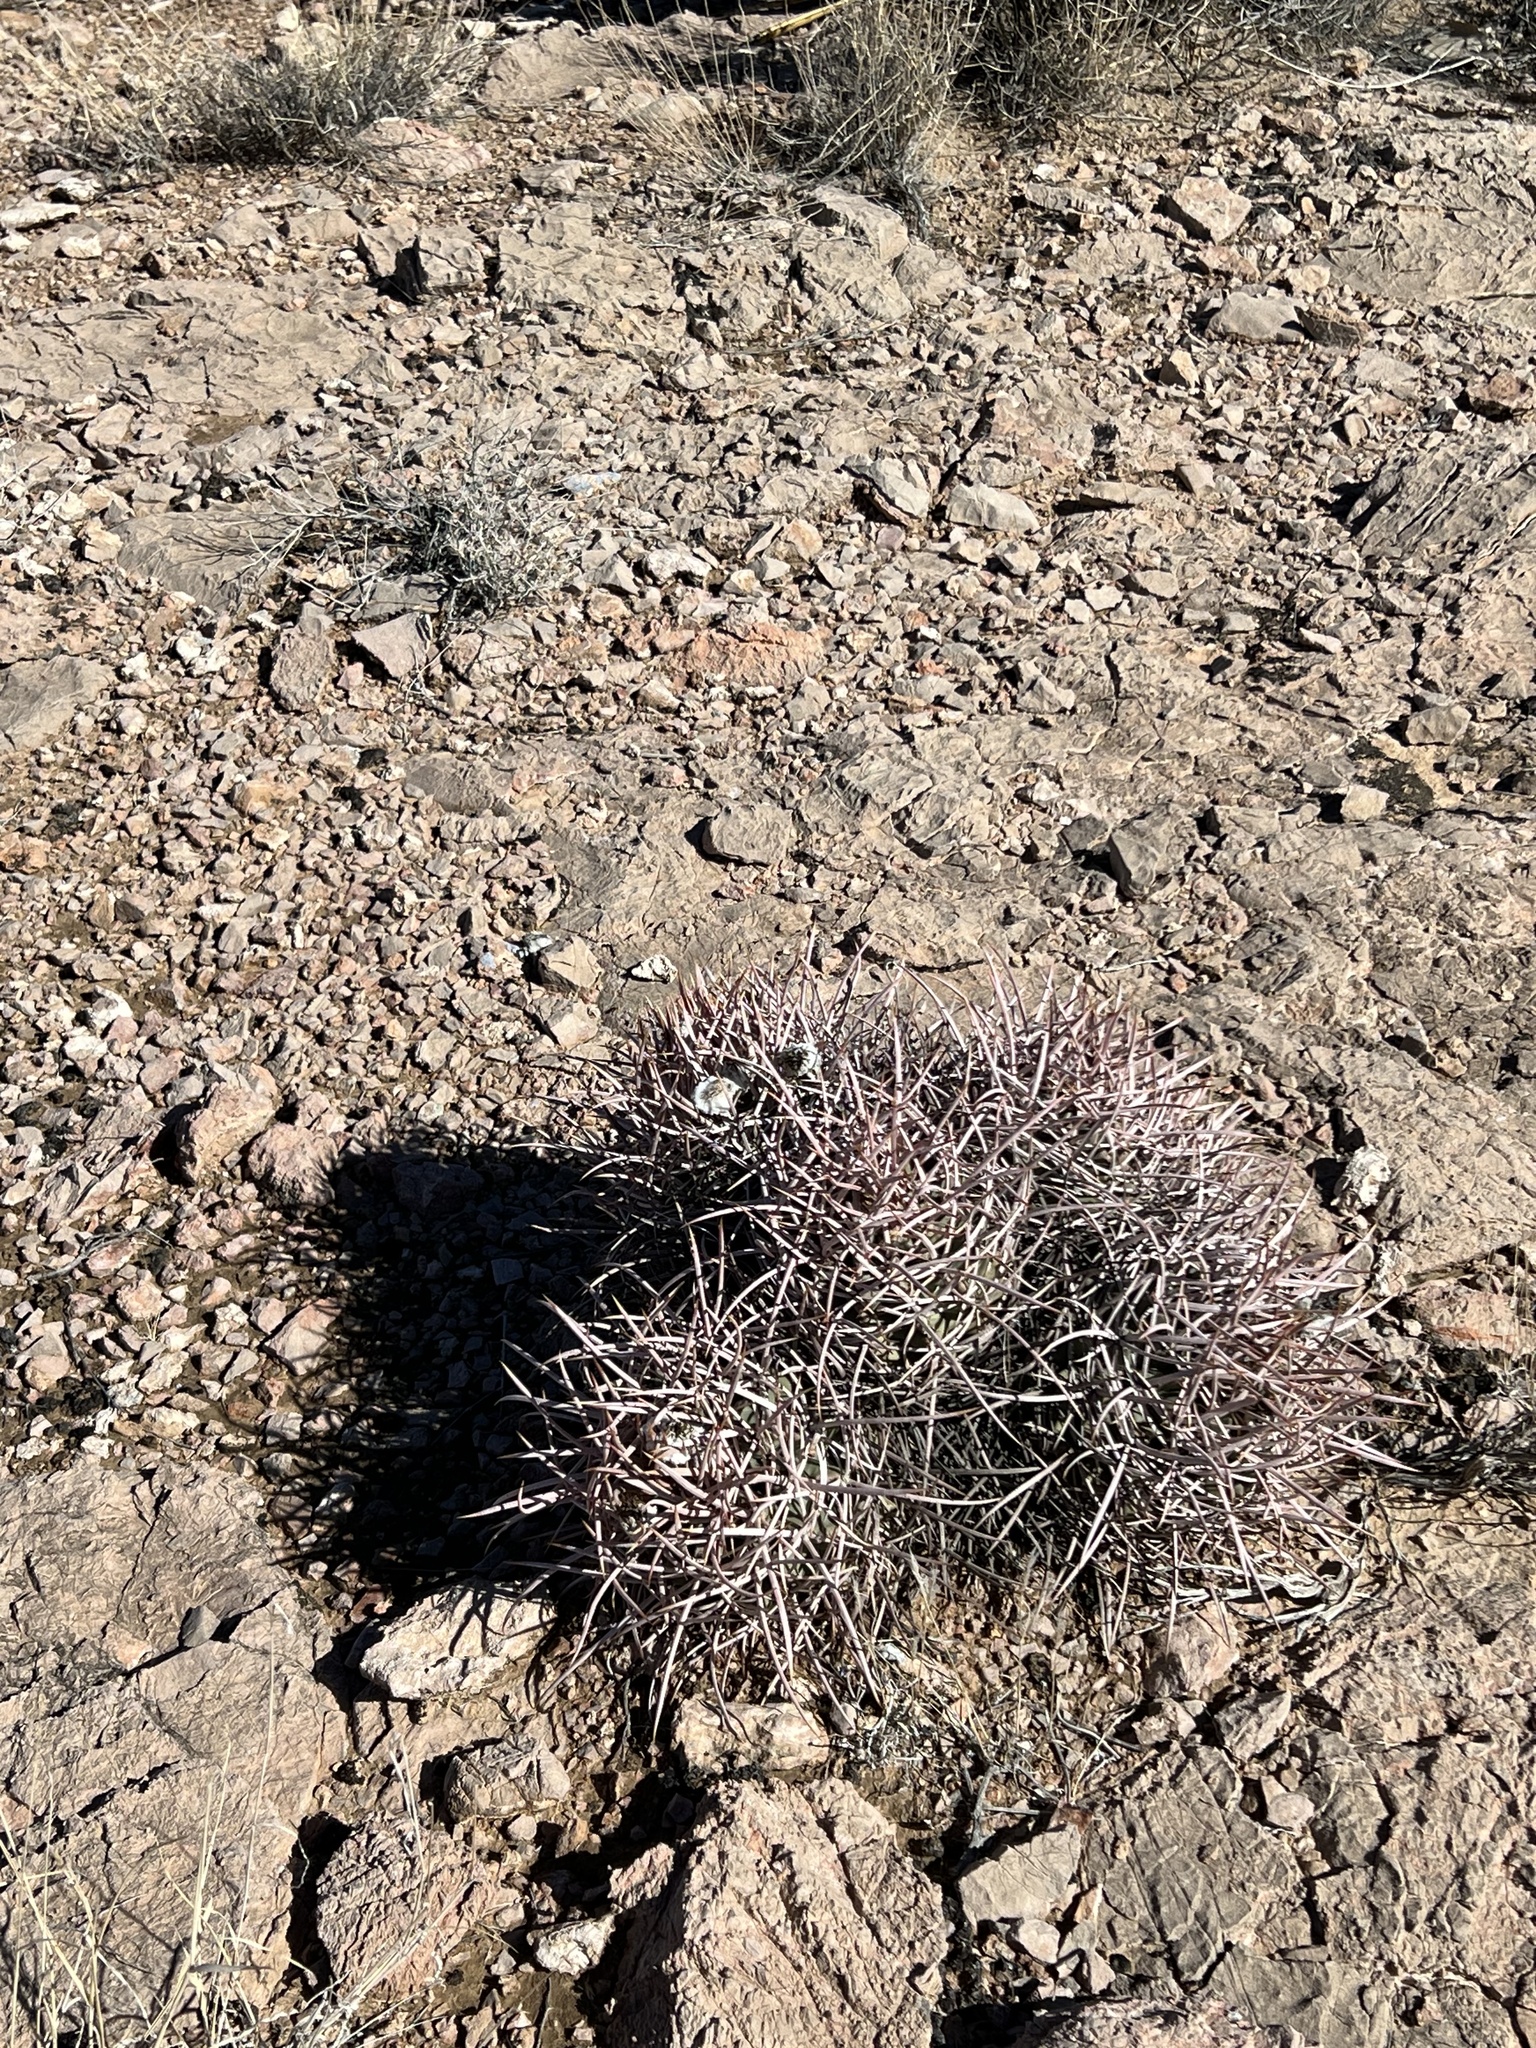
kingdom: Plantae
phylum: Tracheophyta
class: Magnoliopsida
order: Caryophyllales
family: Cactaceae
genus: Echinocactus
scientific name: Echinocactus polycephalus
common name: Cottontop cactus
